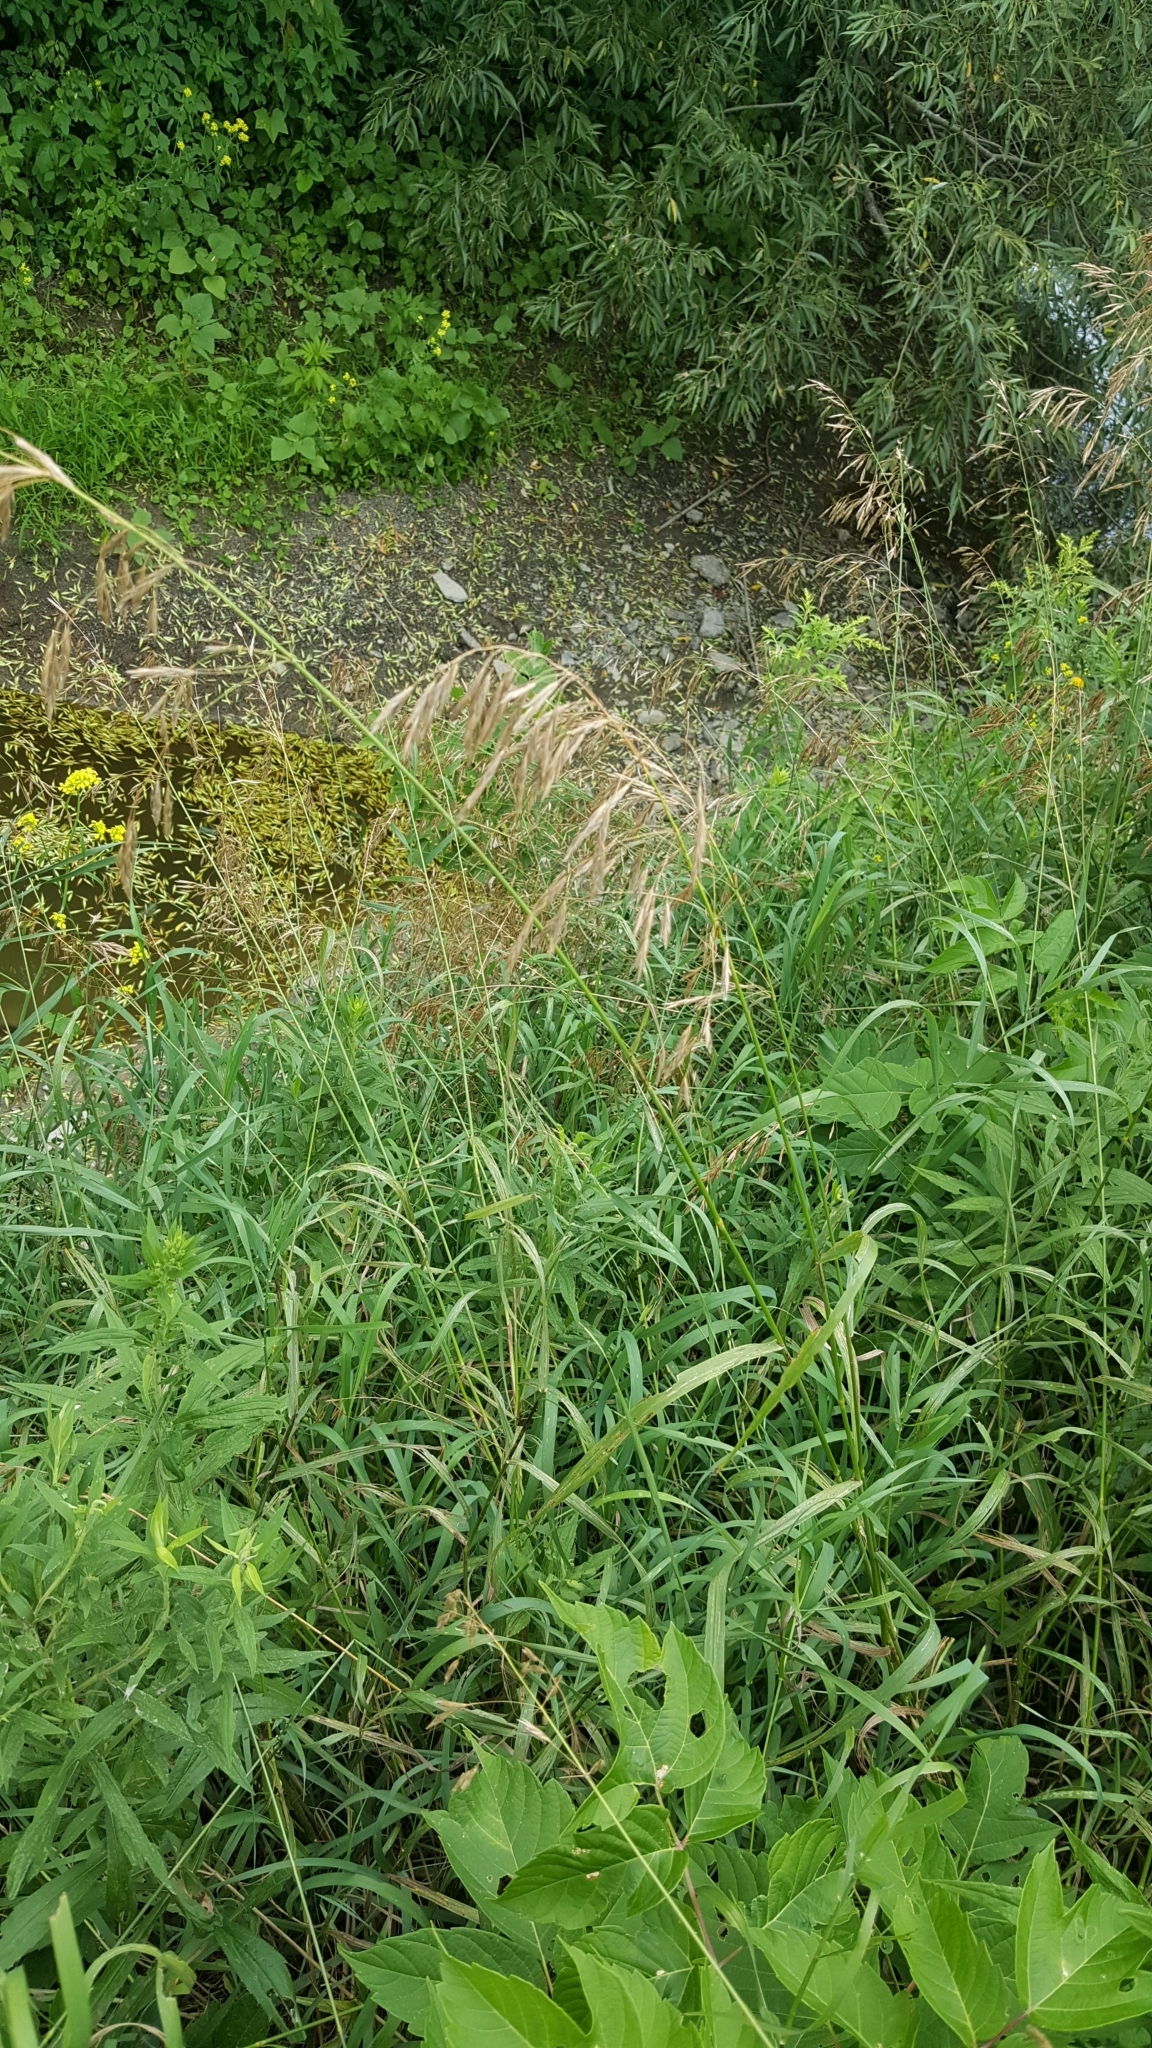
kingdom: Plantae
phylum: Tracheophyta
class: Liliopsida
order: Poales
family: Poaceae
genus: Bromus
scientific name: Bromus inermis
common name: Smooth brome
